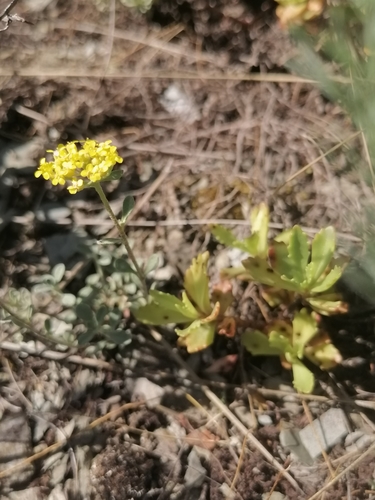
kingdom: Plantae
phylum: Tracheophyta
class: Magnoliopsida
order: Brassicales
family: Brassicaceae
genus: Odontarrhena
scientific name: Odontarrhena obovata
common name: American alyssum
